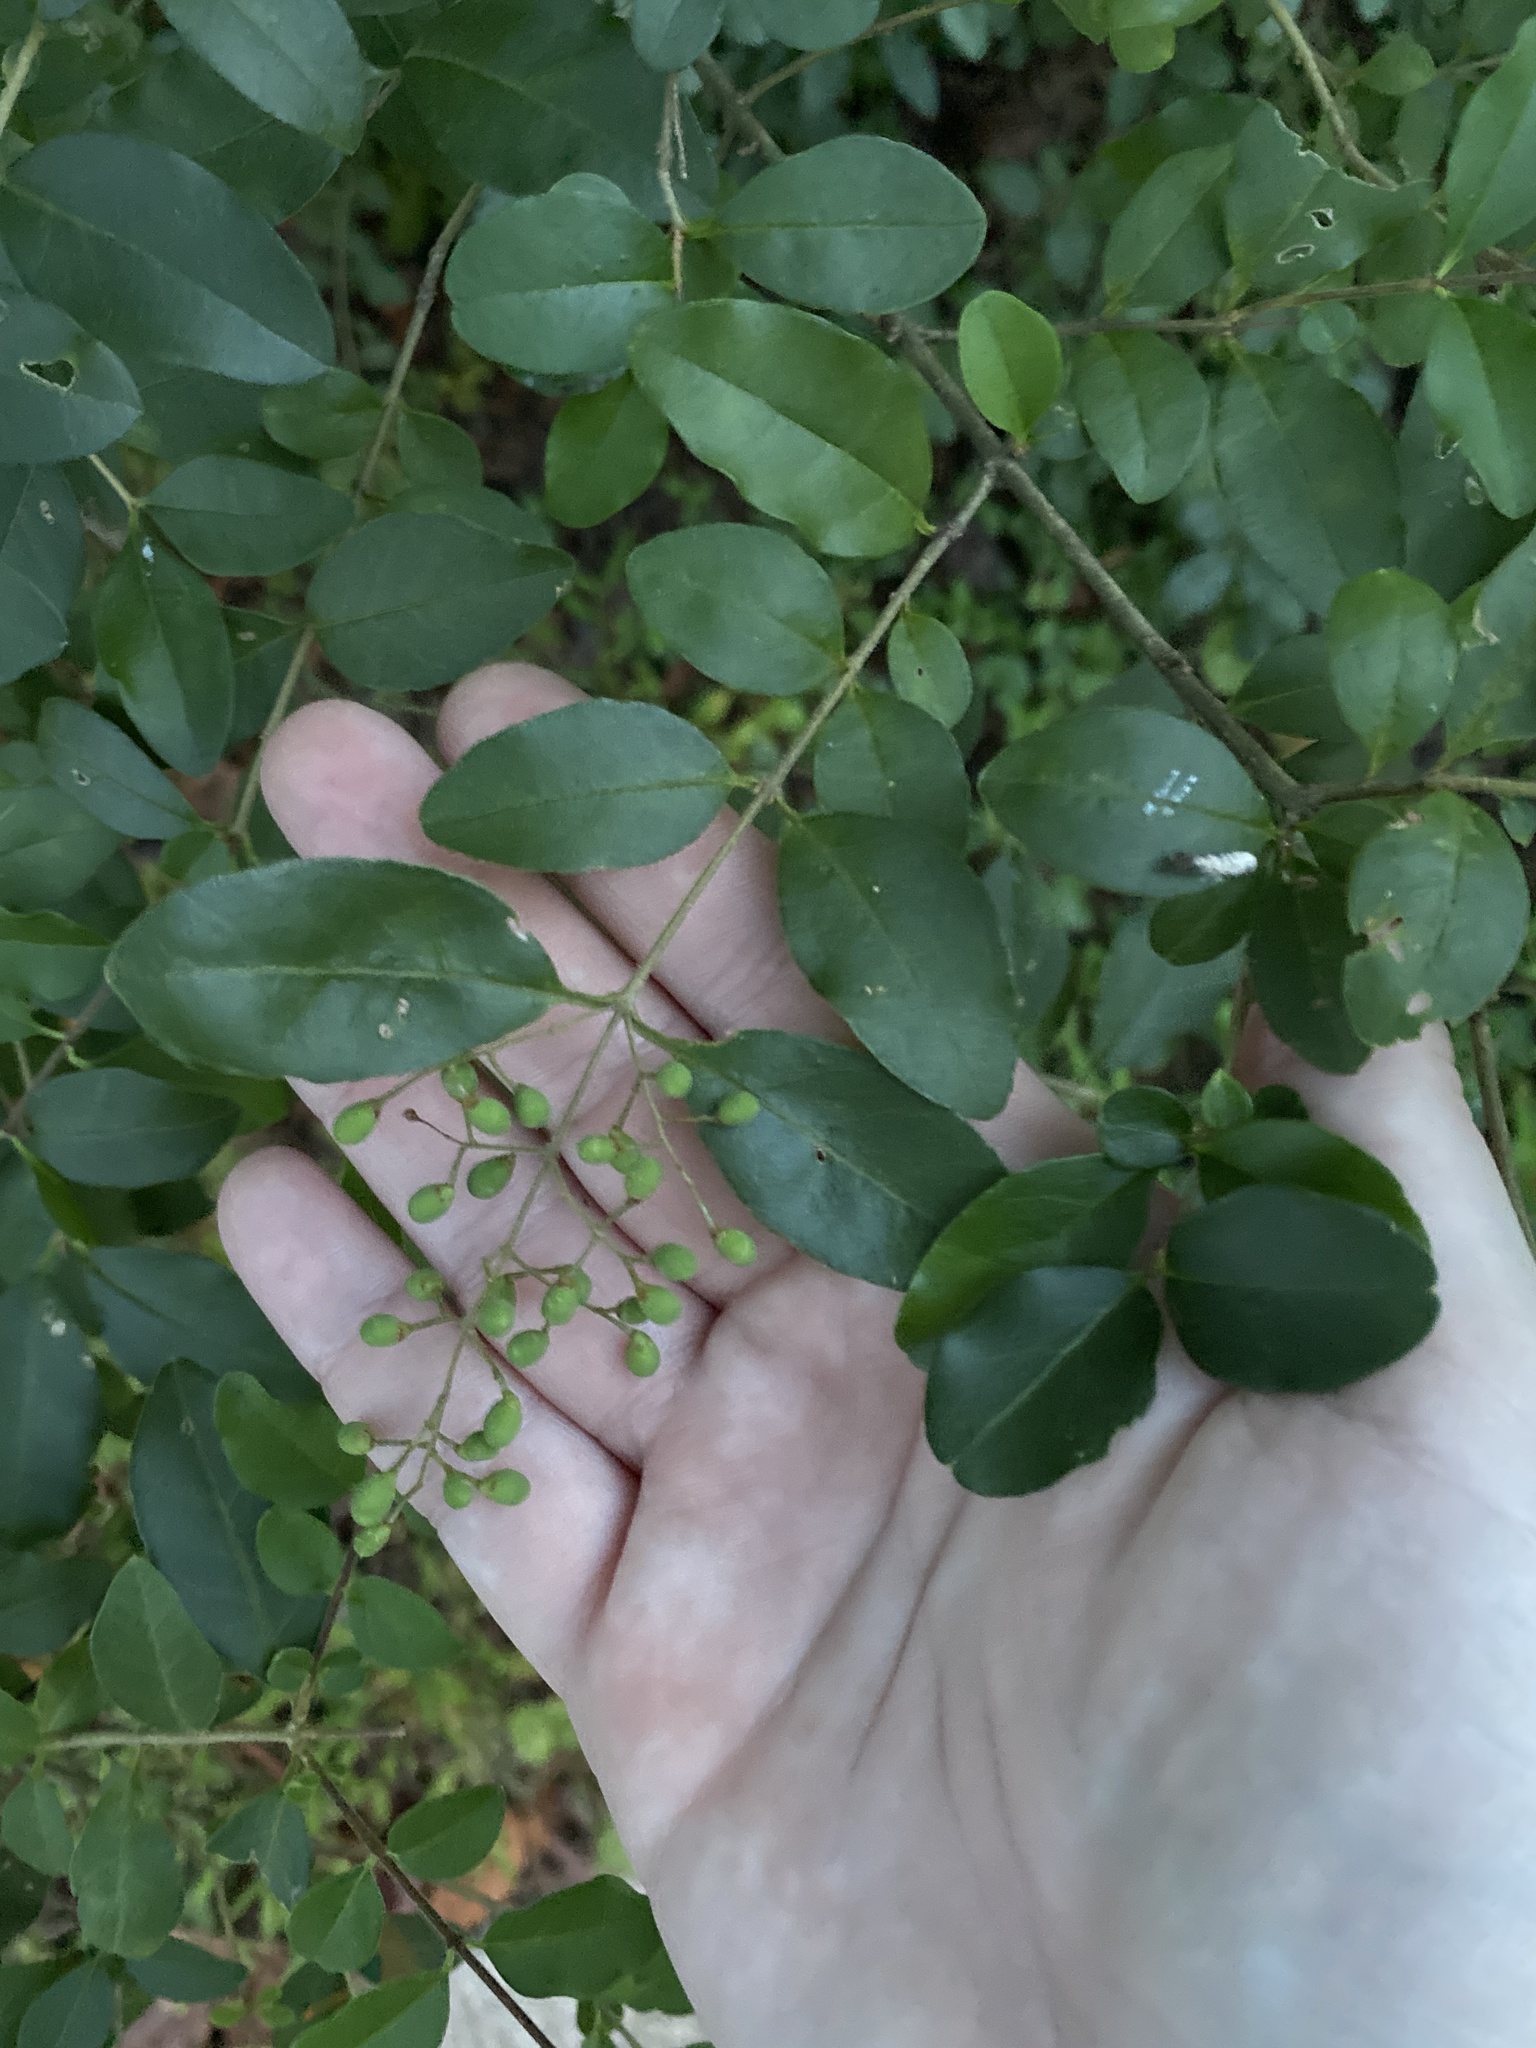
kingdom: Plantae
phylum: Tracheophyta
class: Magnoliopsida
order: Lamiales
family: Oleaceae
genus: Ligustrum
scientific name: Ligustrum sinense
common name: Chinese privet
